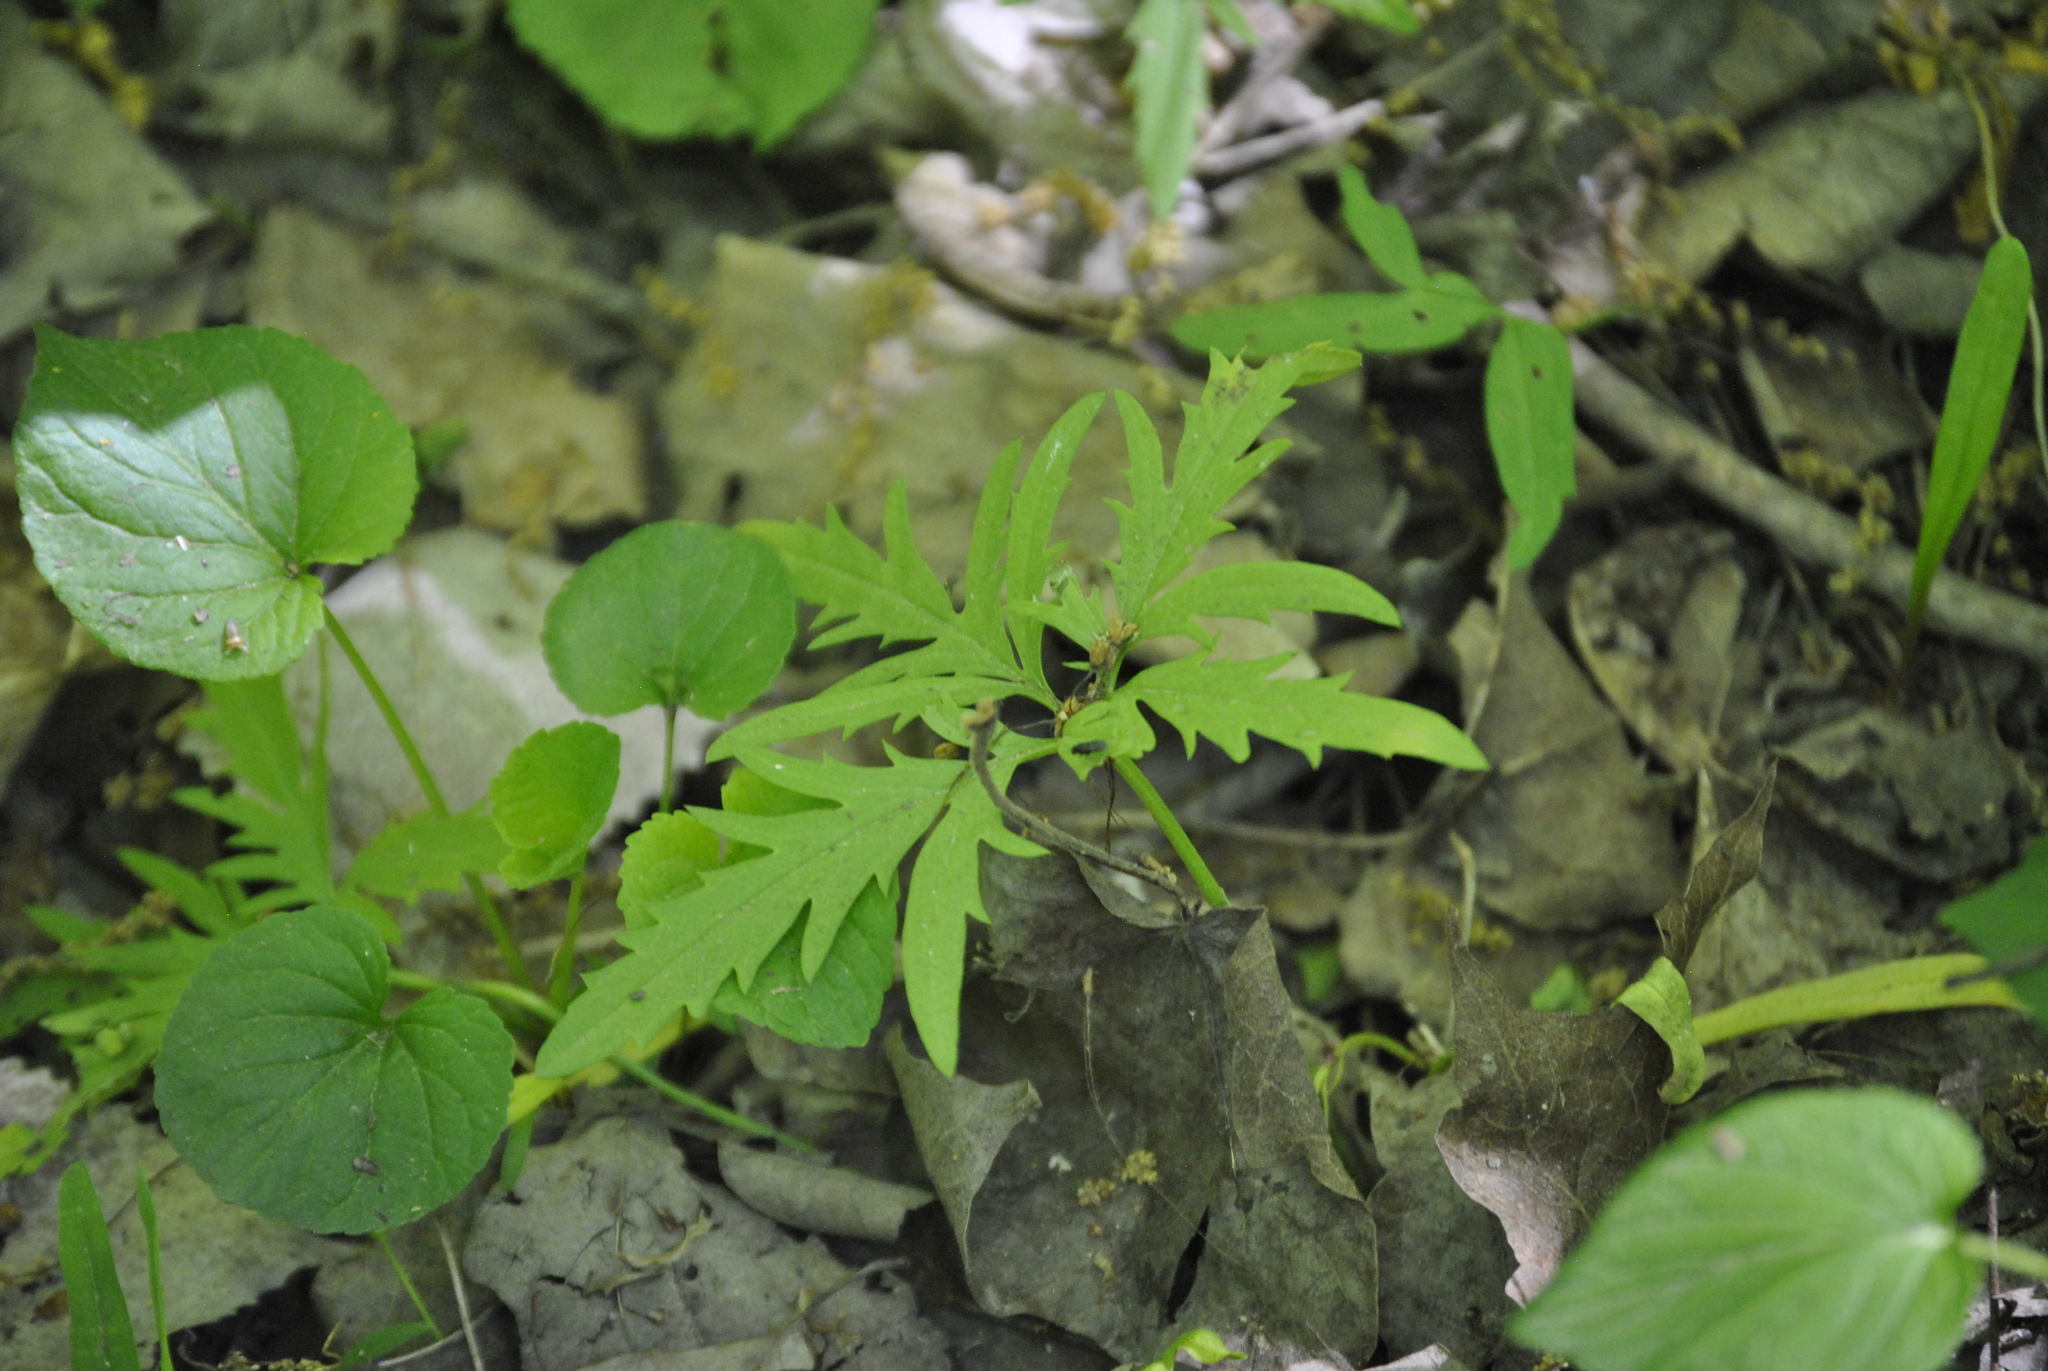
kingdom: Plantae
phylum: Tracheophyta
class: Magnoliopsida
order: Brassicales
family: Brassicaceae
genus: Cardamine
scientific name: Cardamine concatenata
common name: Cut-leaf toothcup
